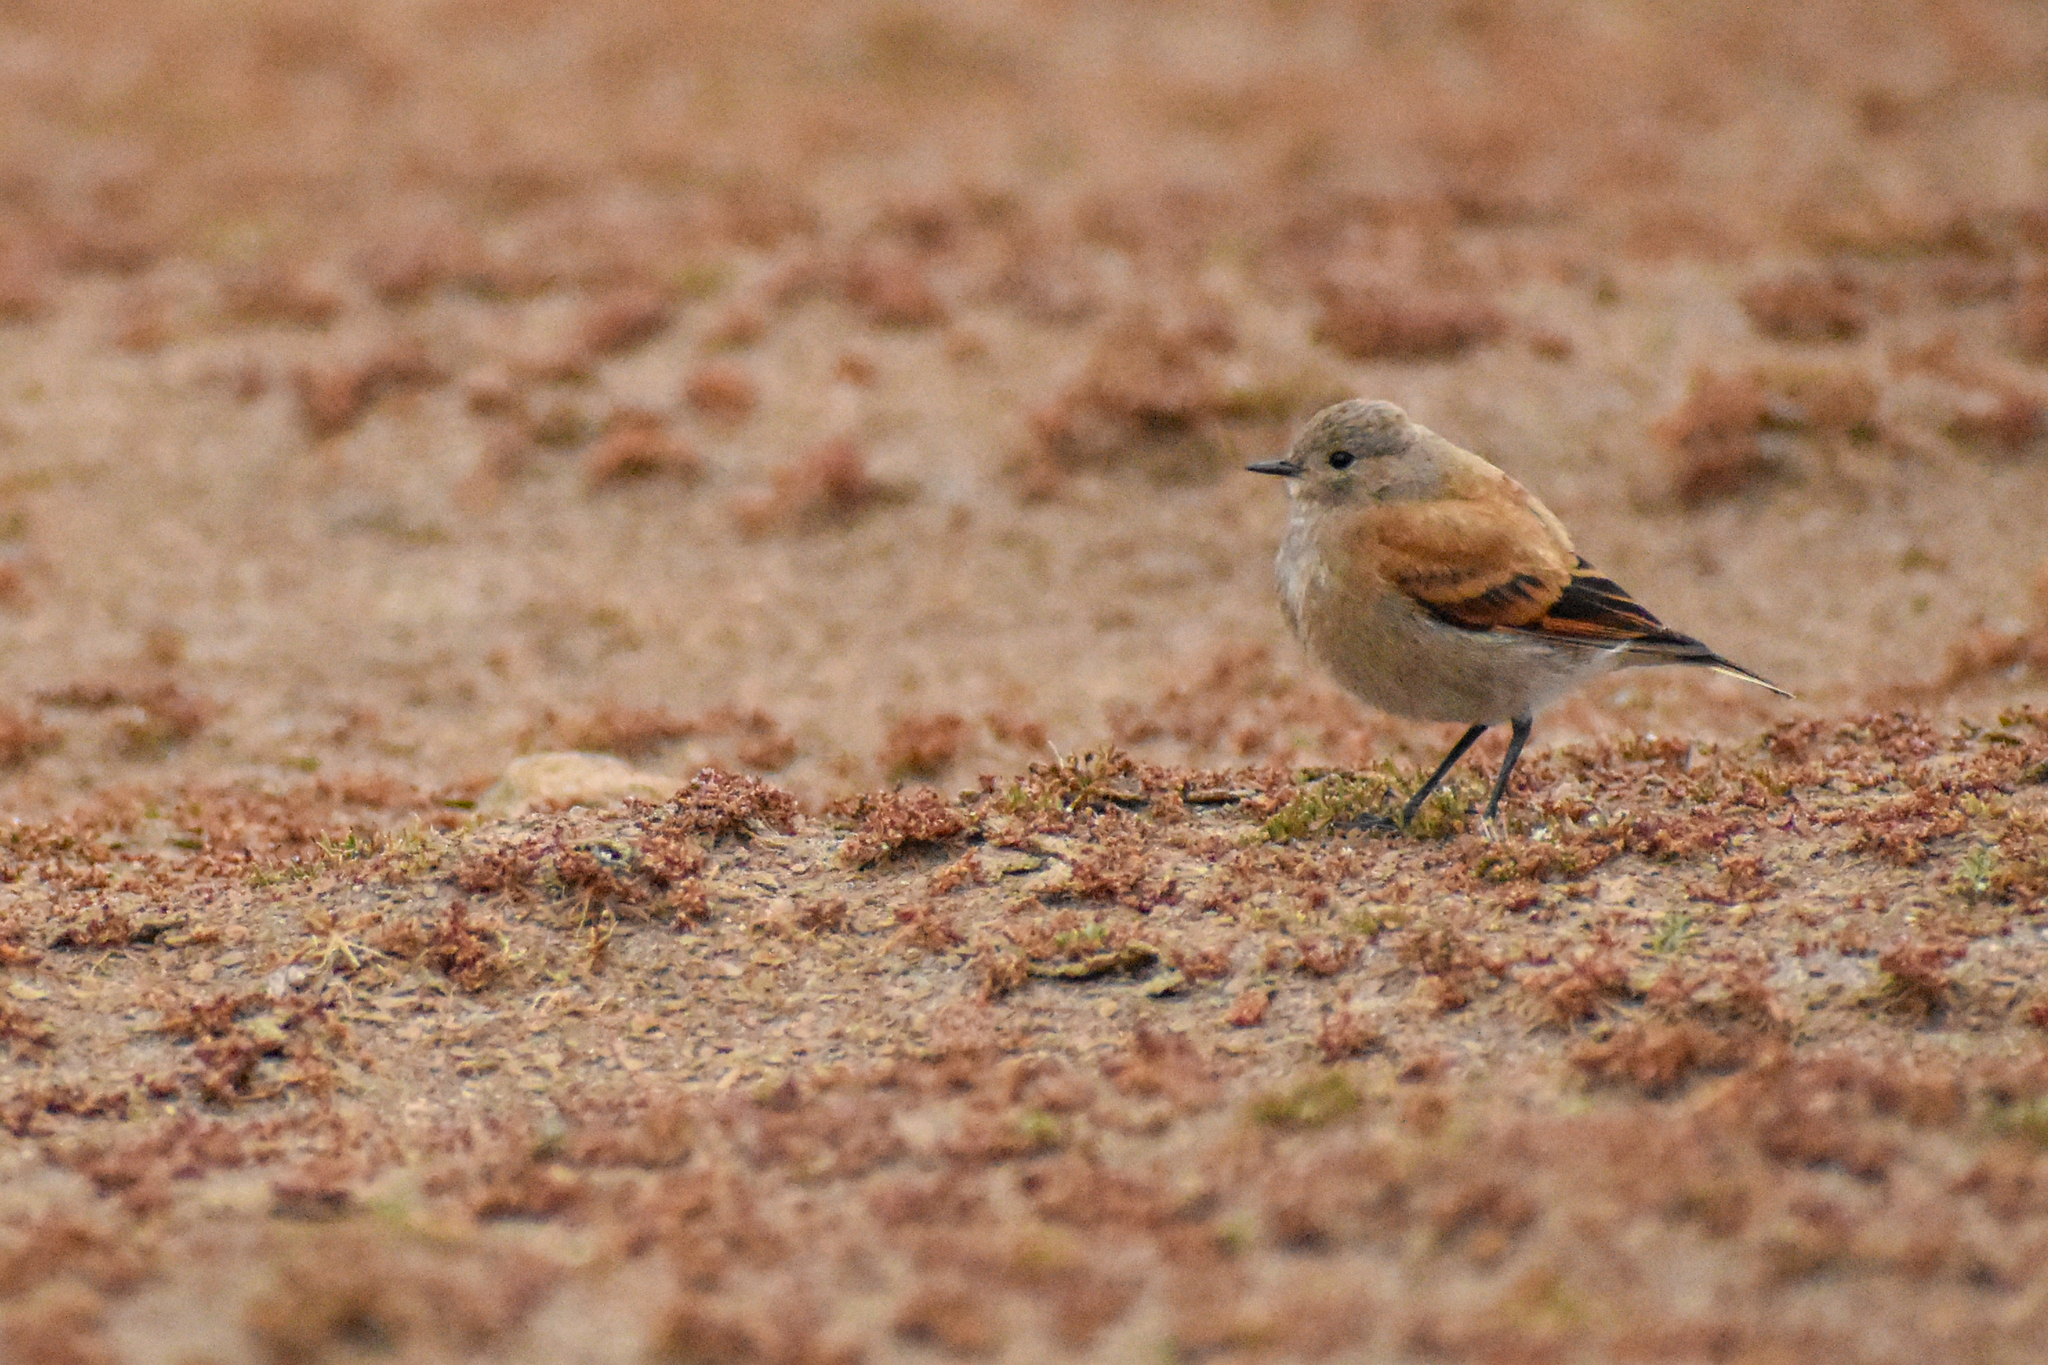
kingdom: Animalia
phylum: Chordata
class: Aves
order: Passeriformes
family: Tyrannidae
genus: Lessonia
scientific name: Lessonia rufa
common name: Austral negrito
